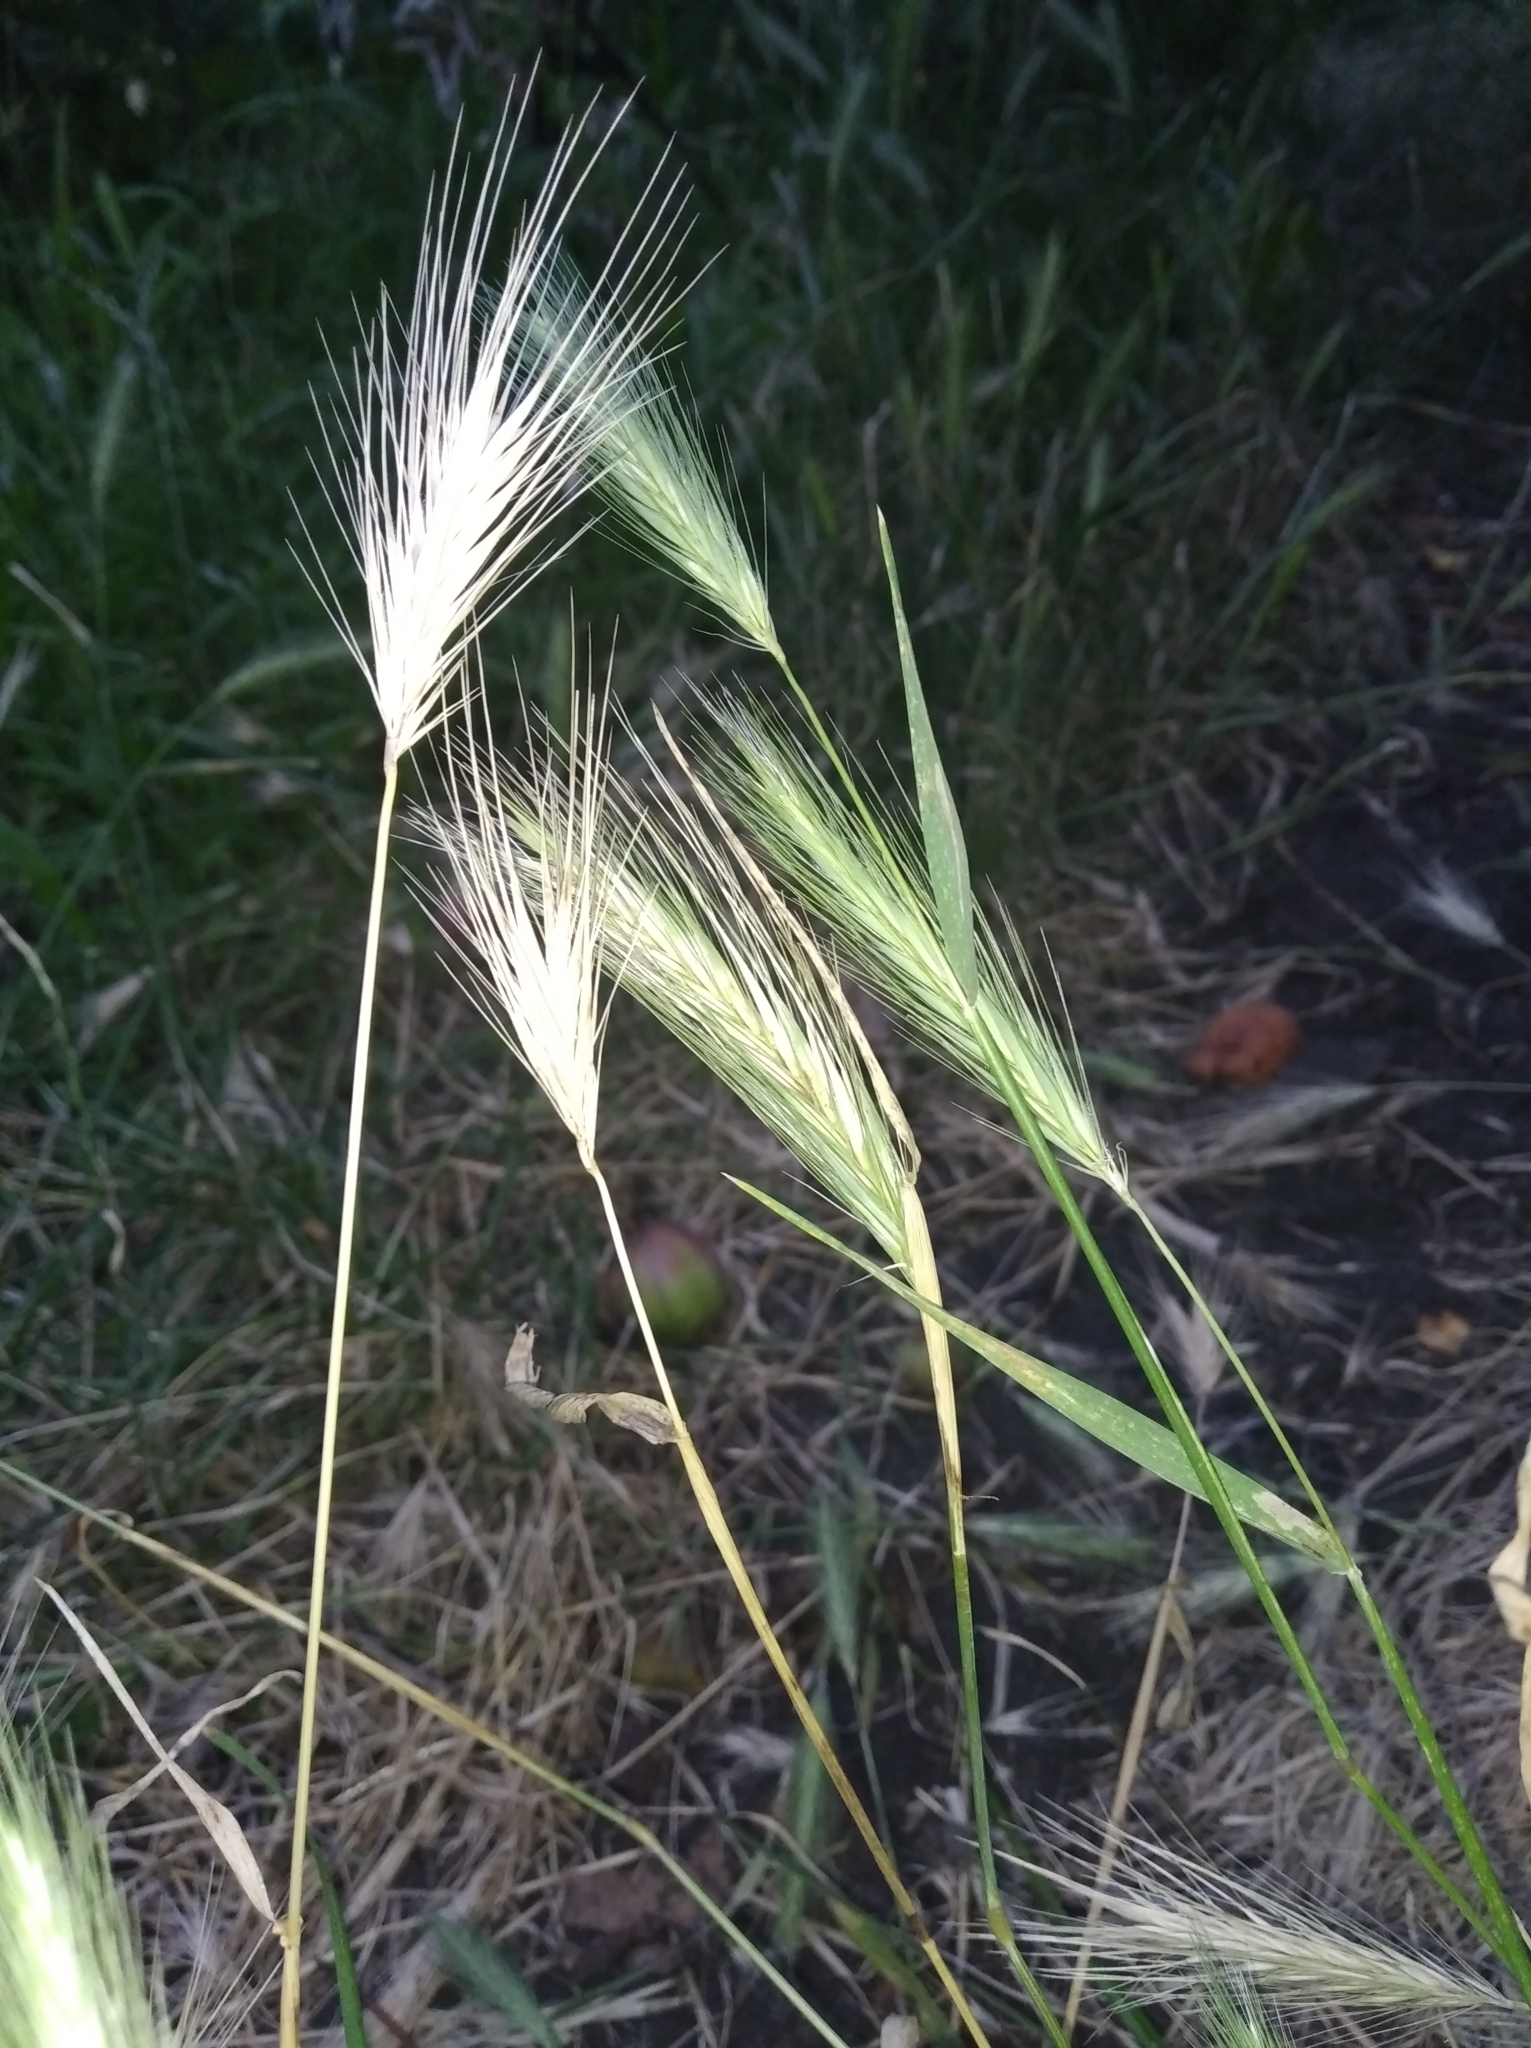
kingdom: Plantae
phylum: Tracheophyta
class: Liliopsida
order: Poales
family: Poaceae
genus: Hordeum
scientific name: Hordeum murinum
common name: Wall barley
